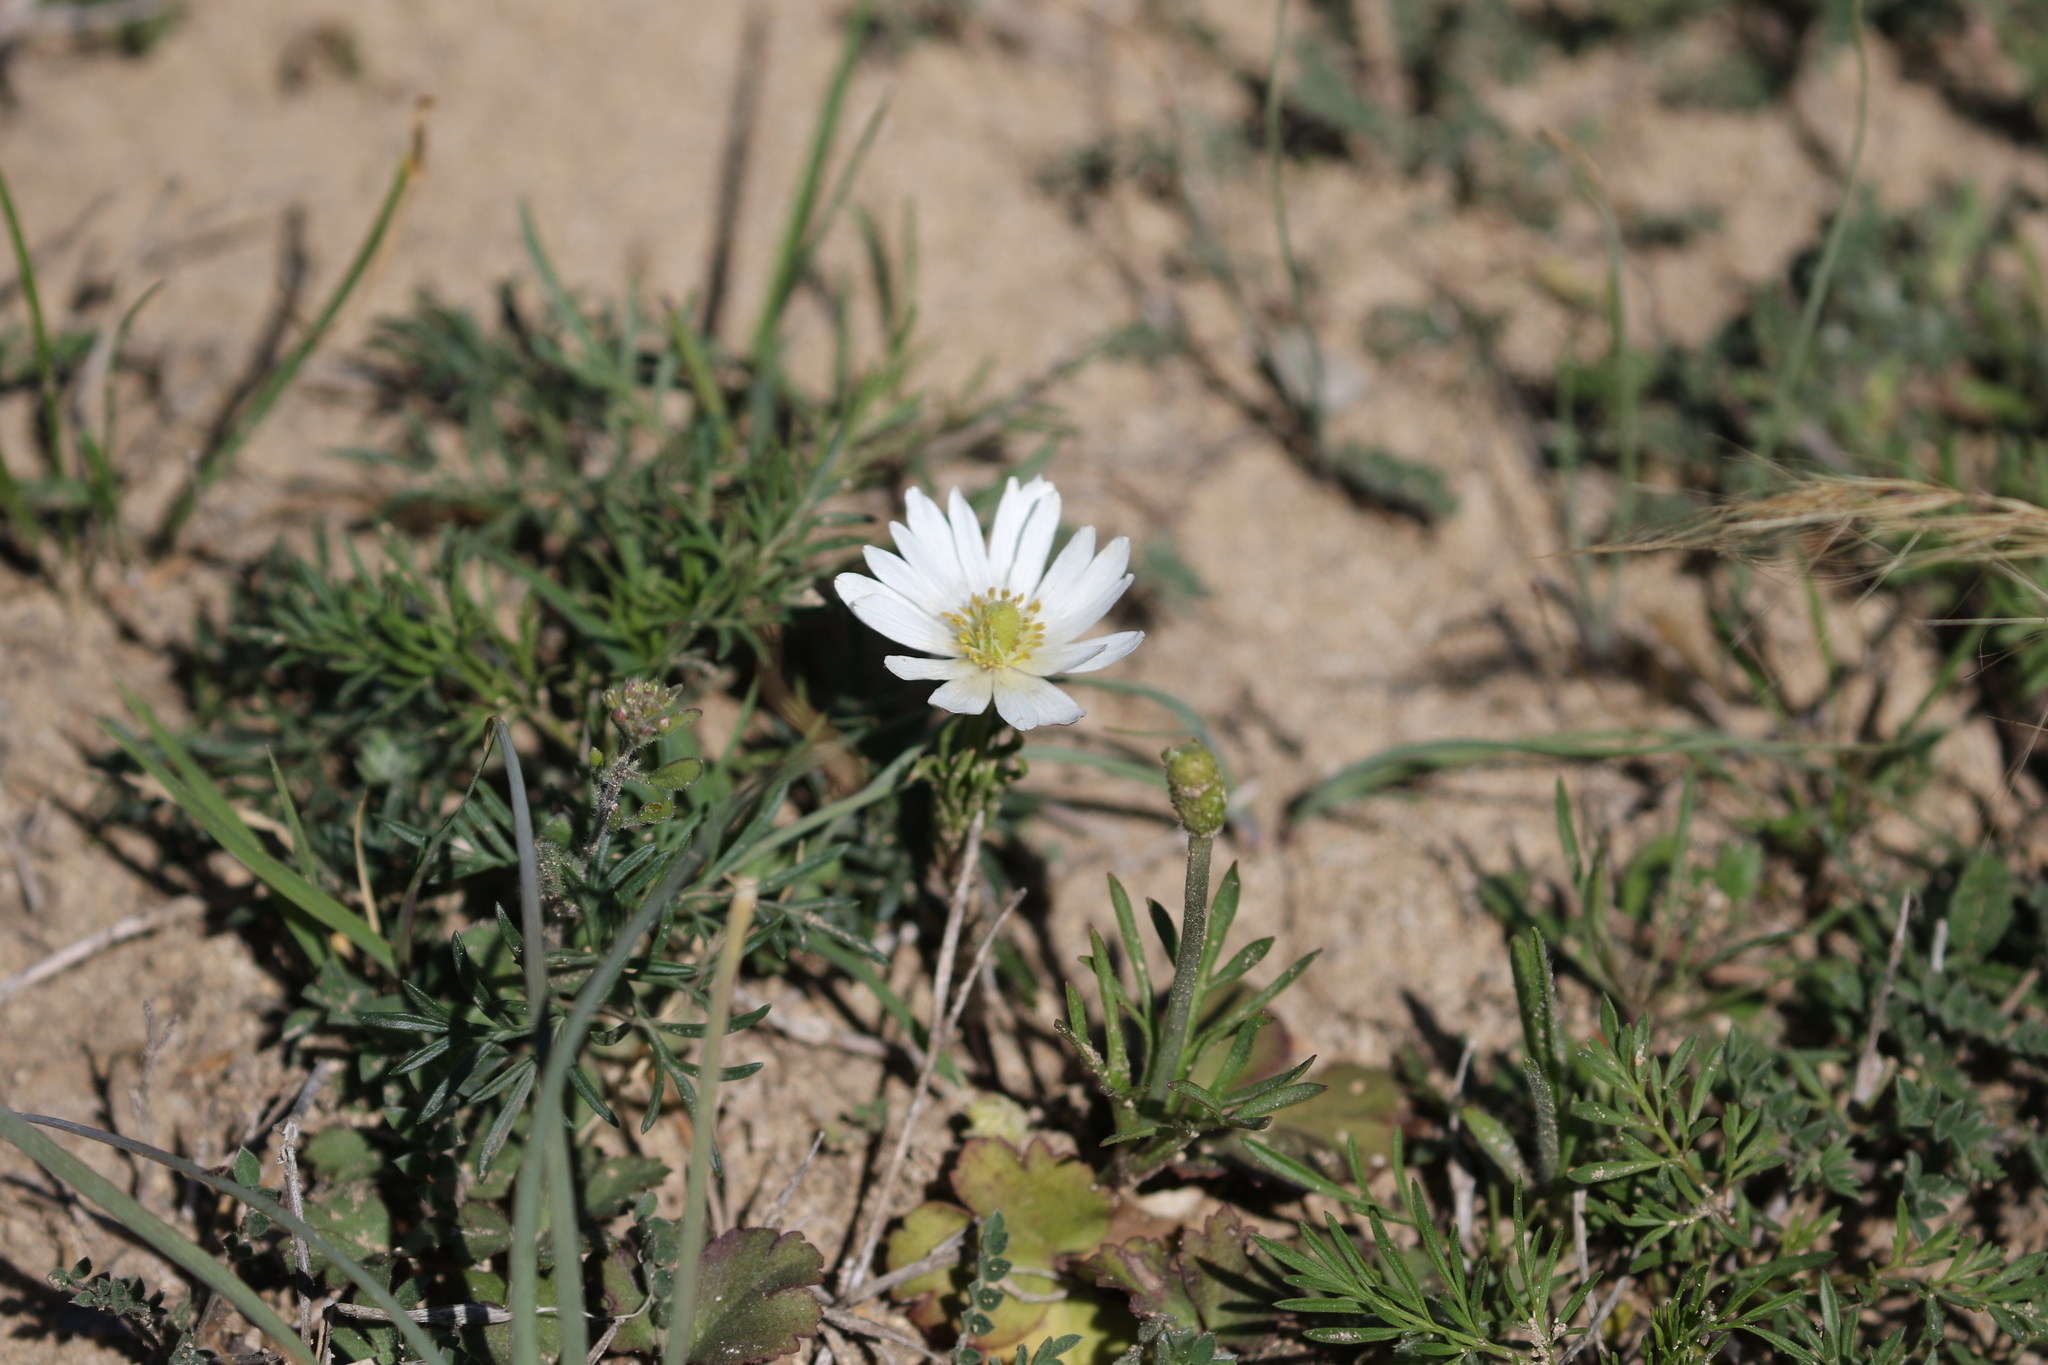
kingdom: Plantae
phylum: Tracheophyta
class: Magnoliopsida
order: Ranunculales
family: Ranunculaceae
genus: Anemone
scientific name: Anemone berlandieri
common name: Ten-petal anemone
